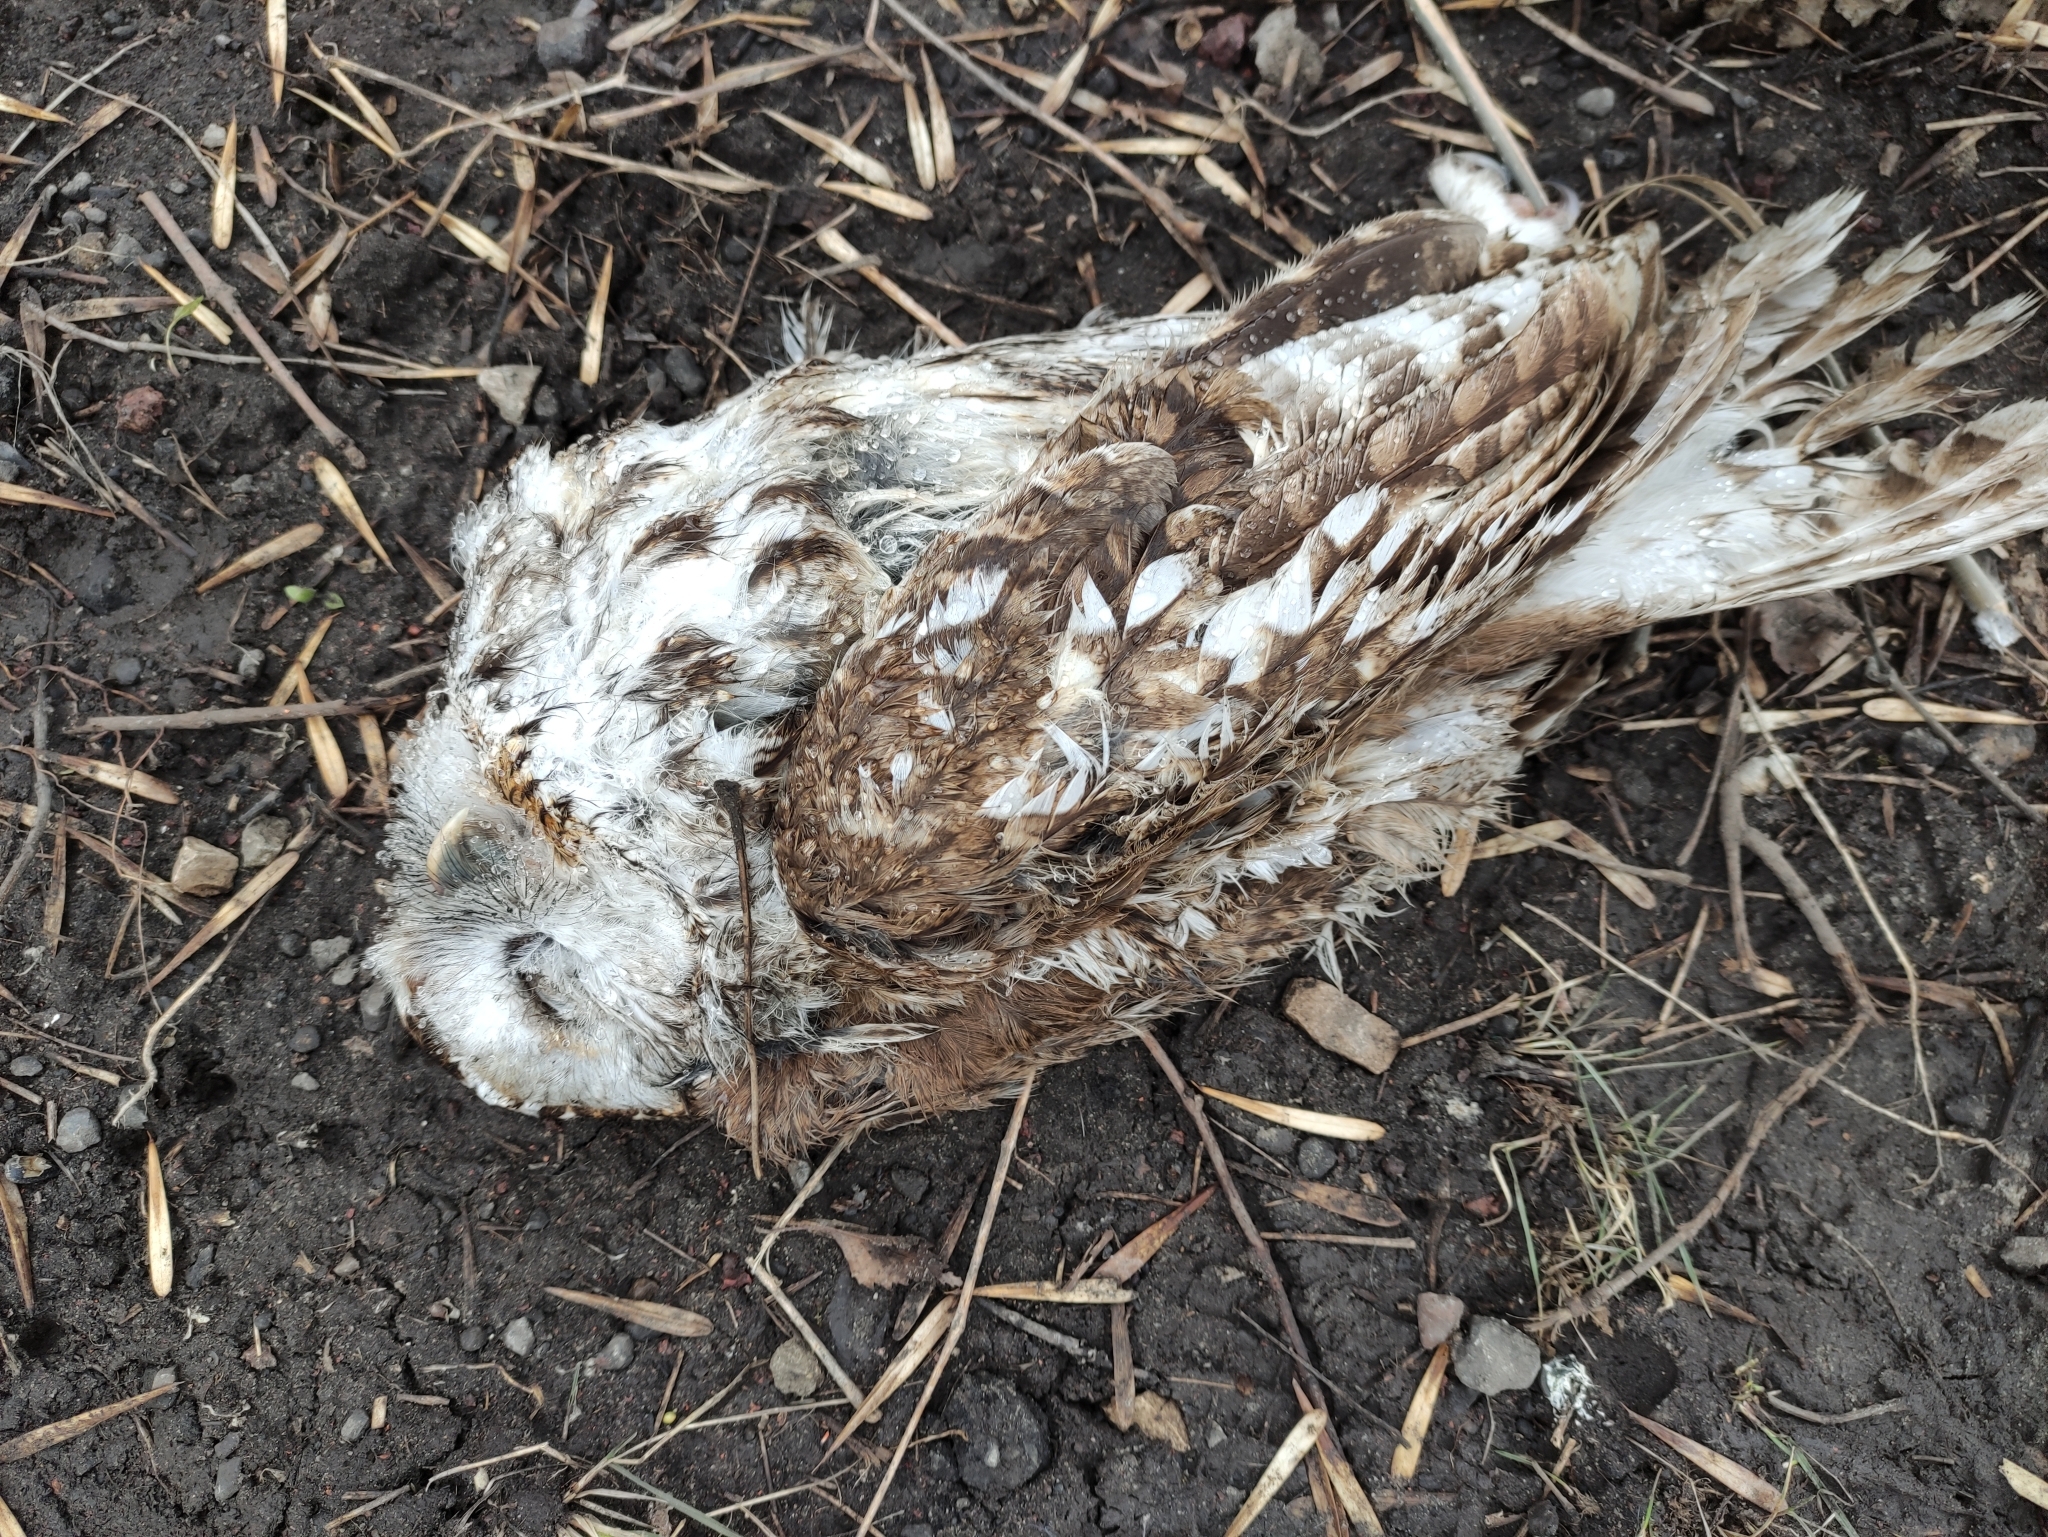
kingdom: Animalia
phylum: Chordata
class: Aves
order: Strigiformes
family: Strigidae
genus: Strix
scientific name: Strix aluco
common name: Tawny owl
